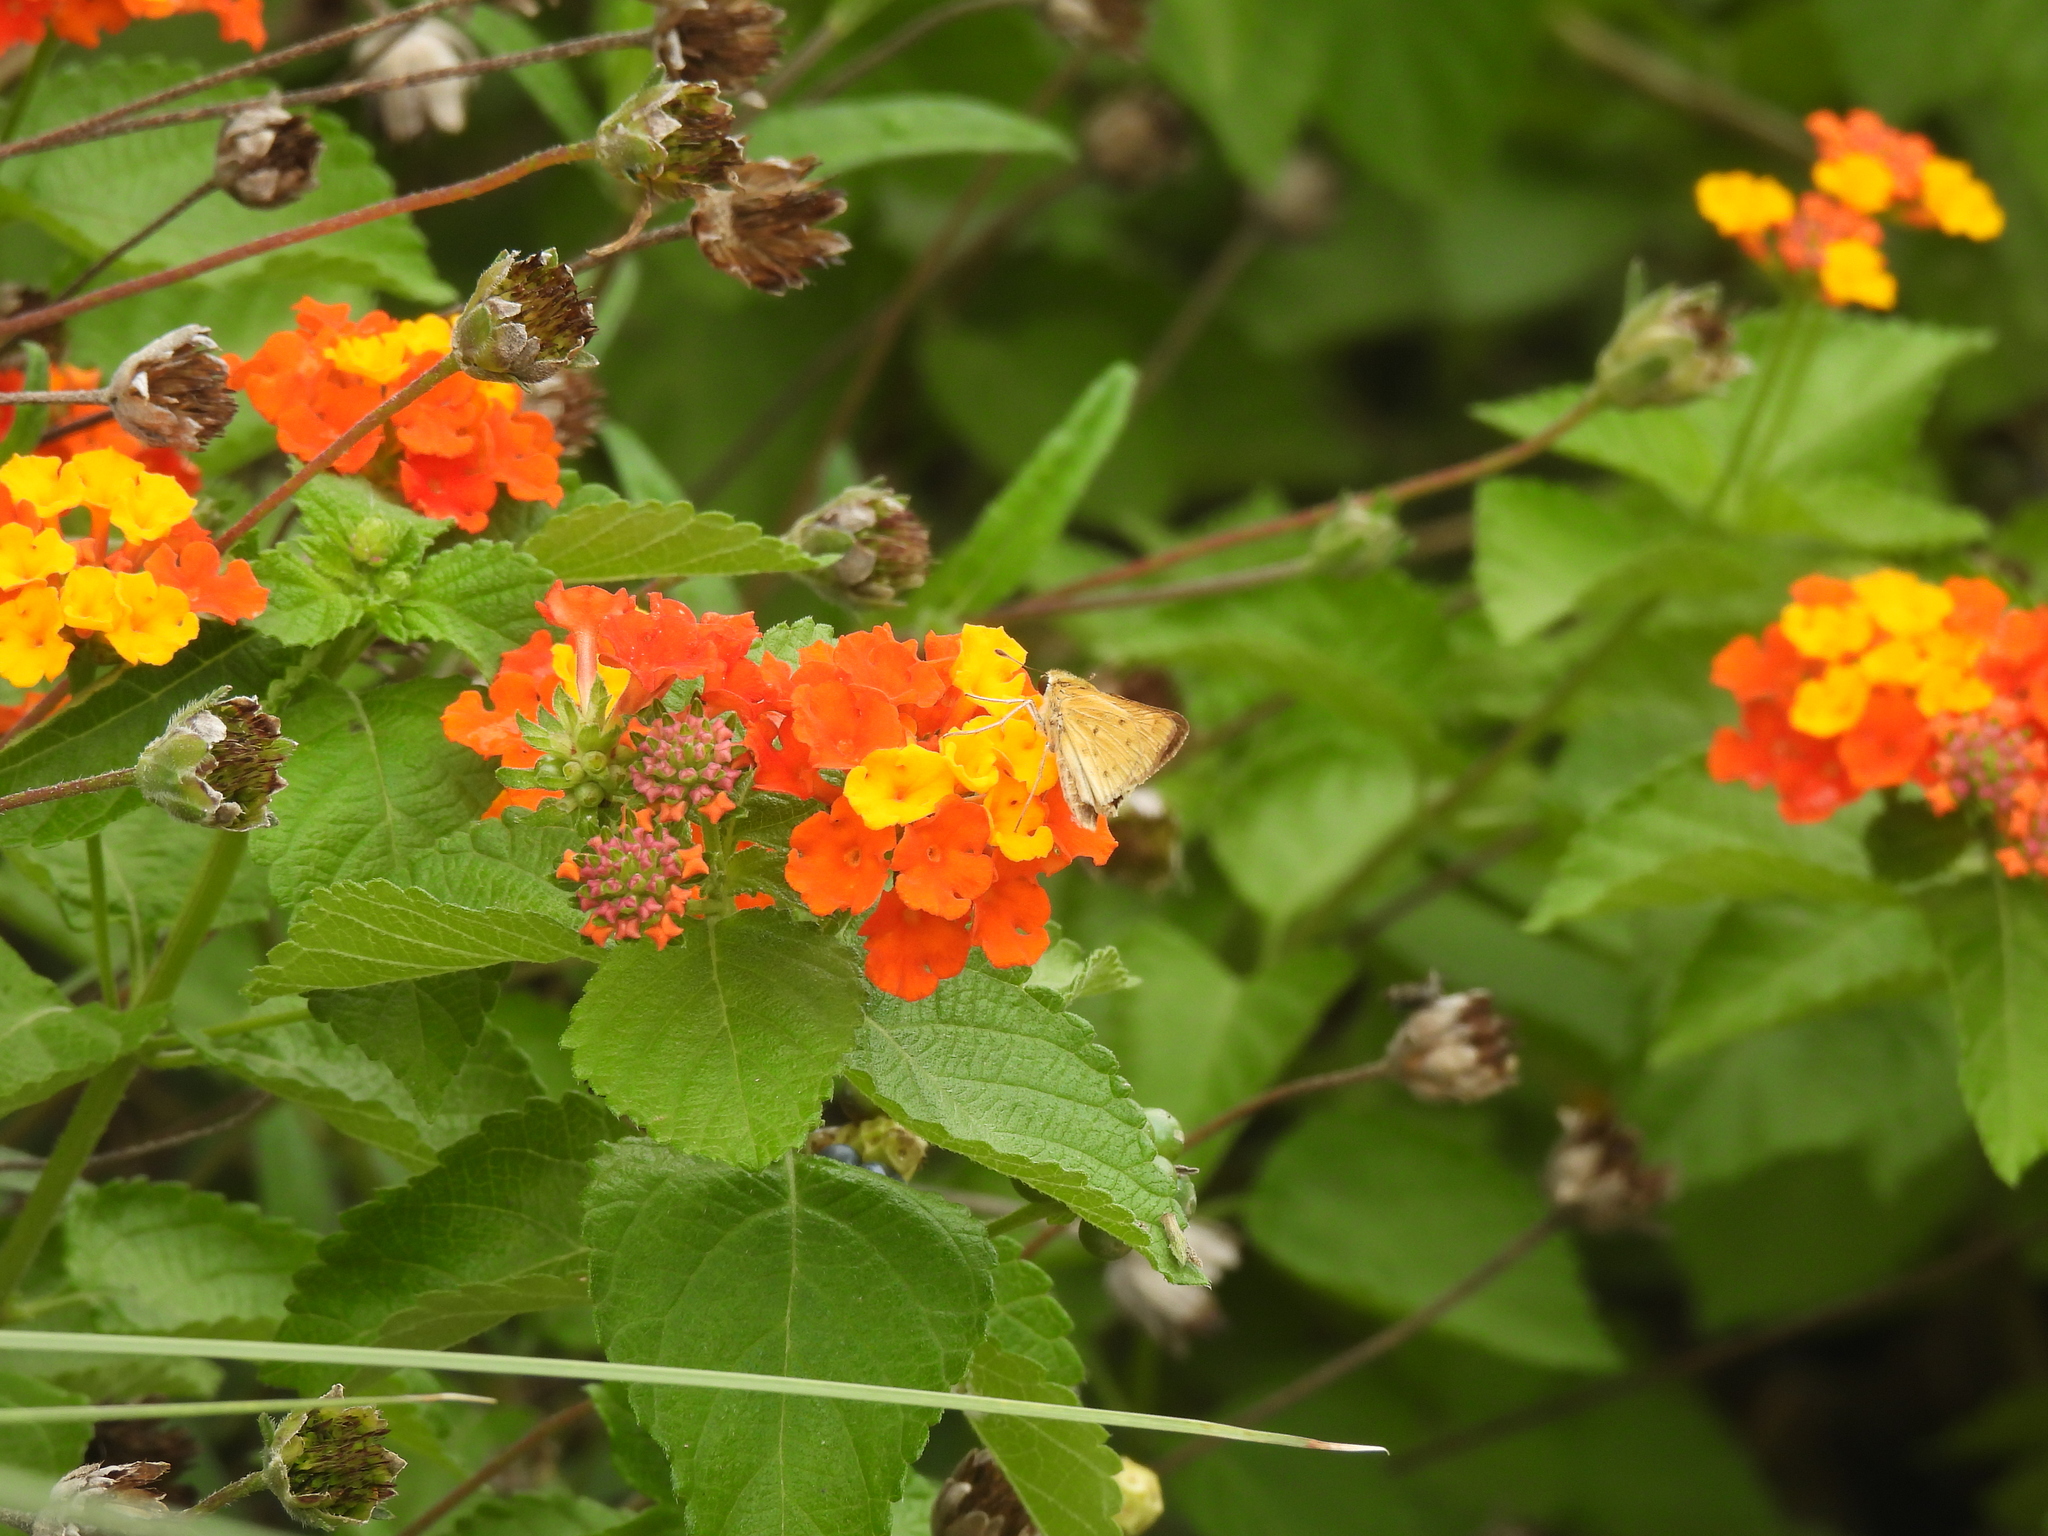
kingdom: Animalia
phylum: Arthropoda
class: Insecta
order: Lepidoptera
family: Hesperiidae
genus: Hylephila
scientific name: Hylephila phyleus
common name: Fiery skipper
